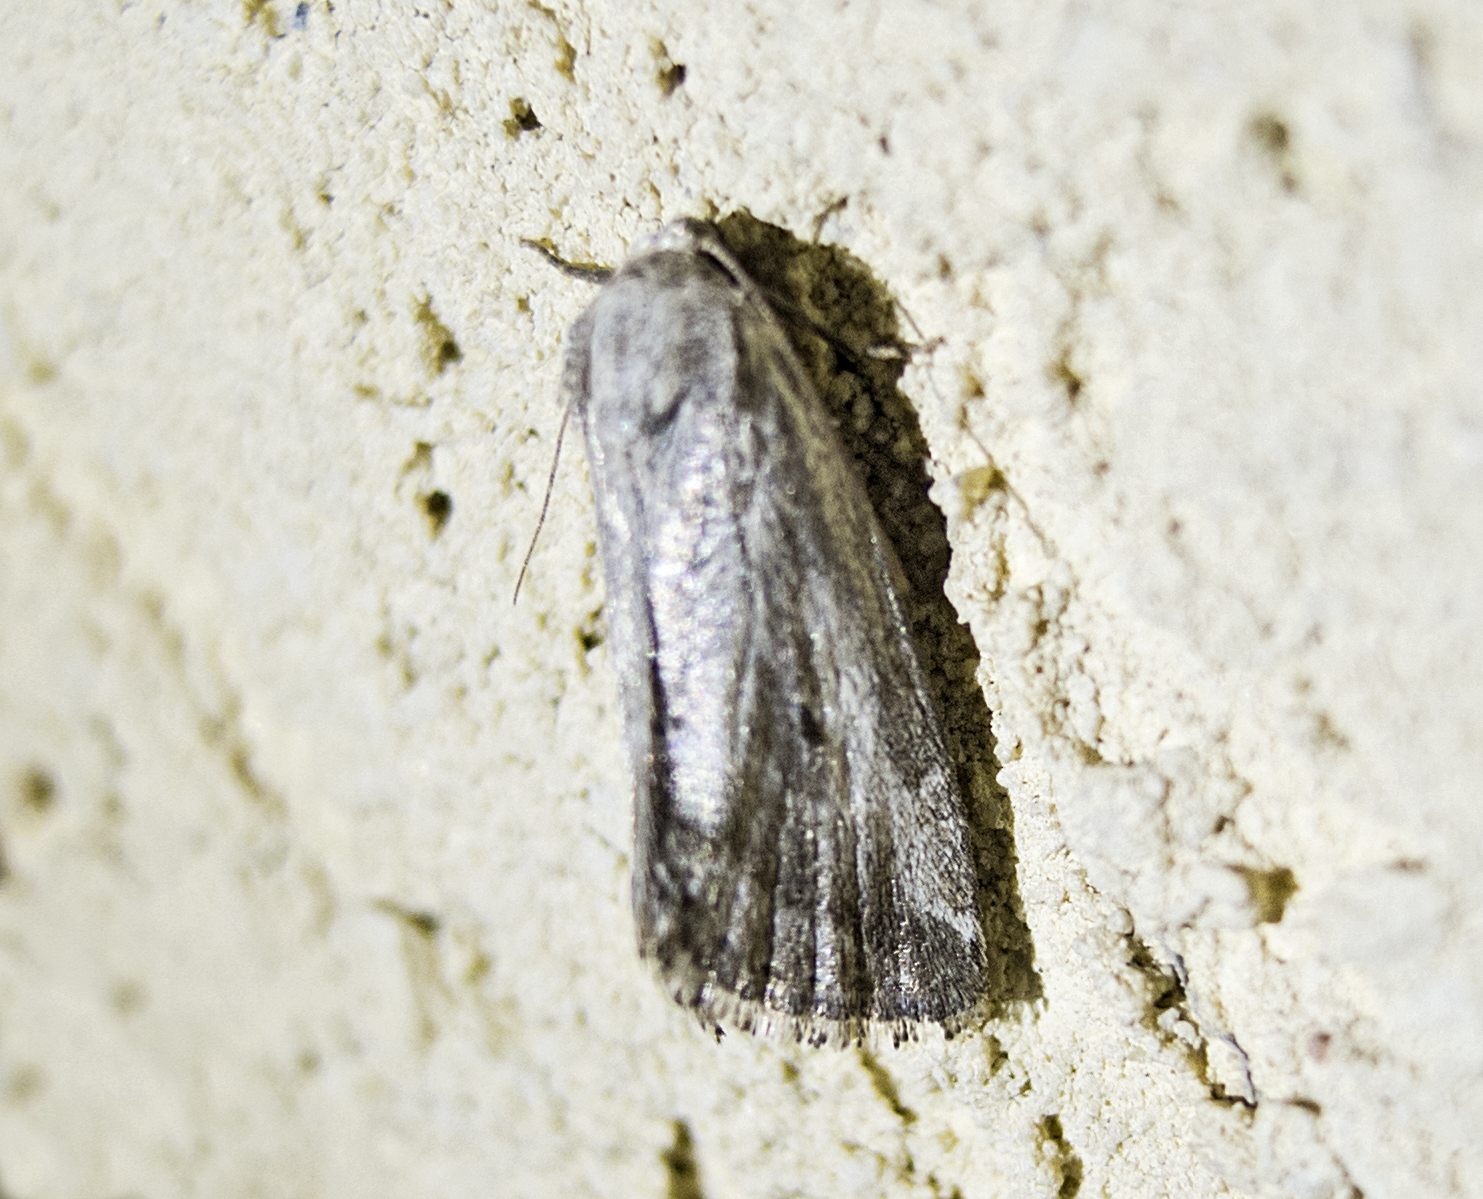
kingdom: Animalia
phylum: Arthropoda
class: Insecta
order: Lepidoptera
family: Noctuidae
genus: Phyllophila
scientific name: Phyllophila obliterata
